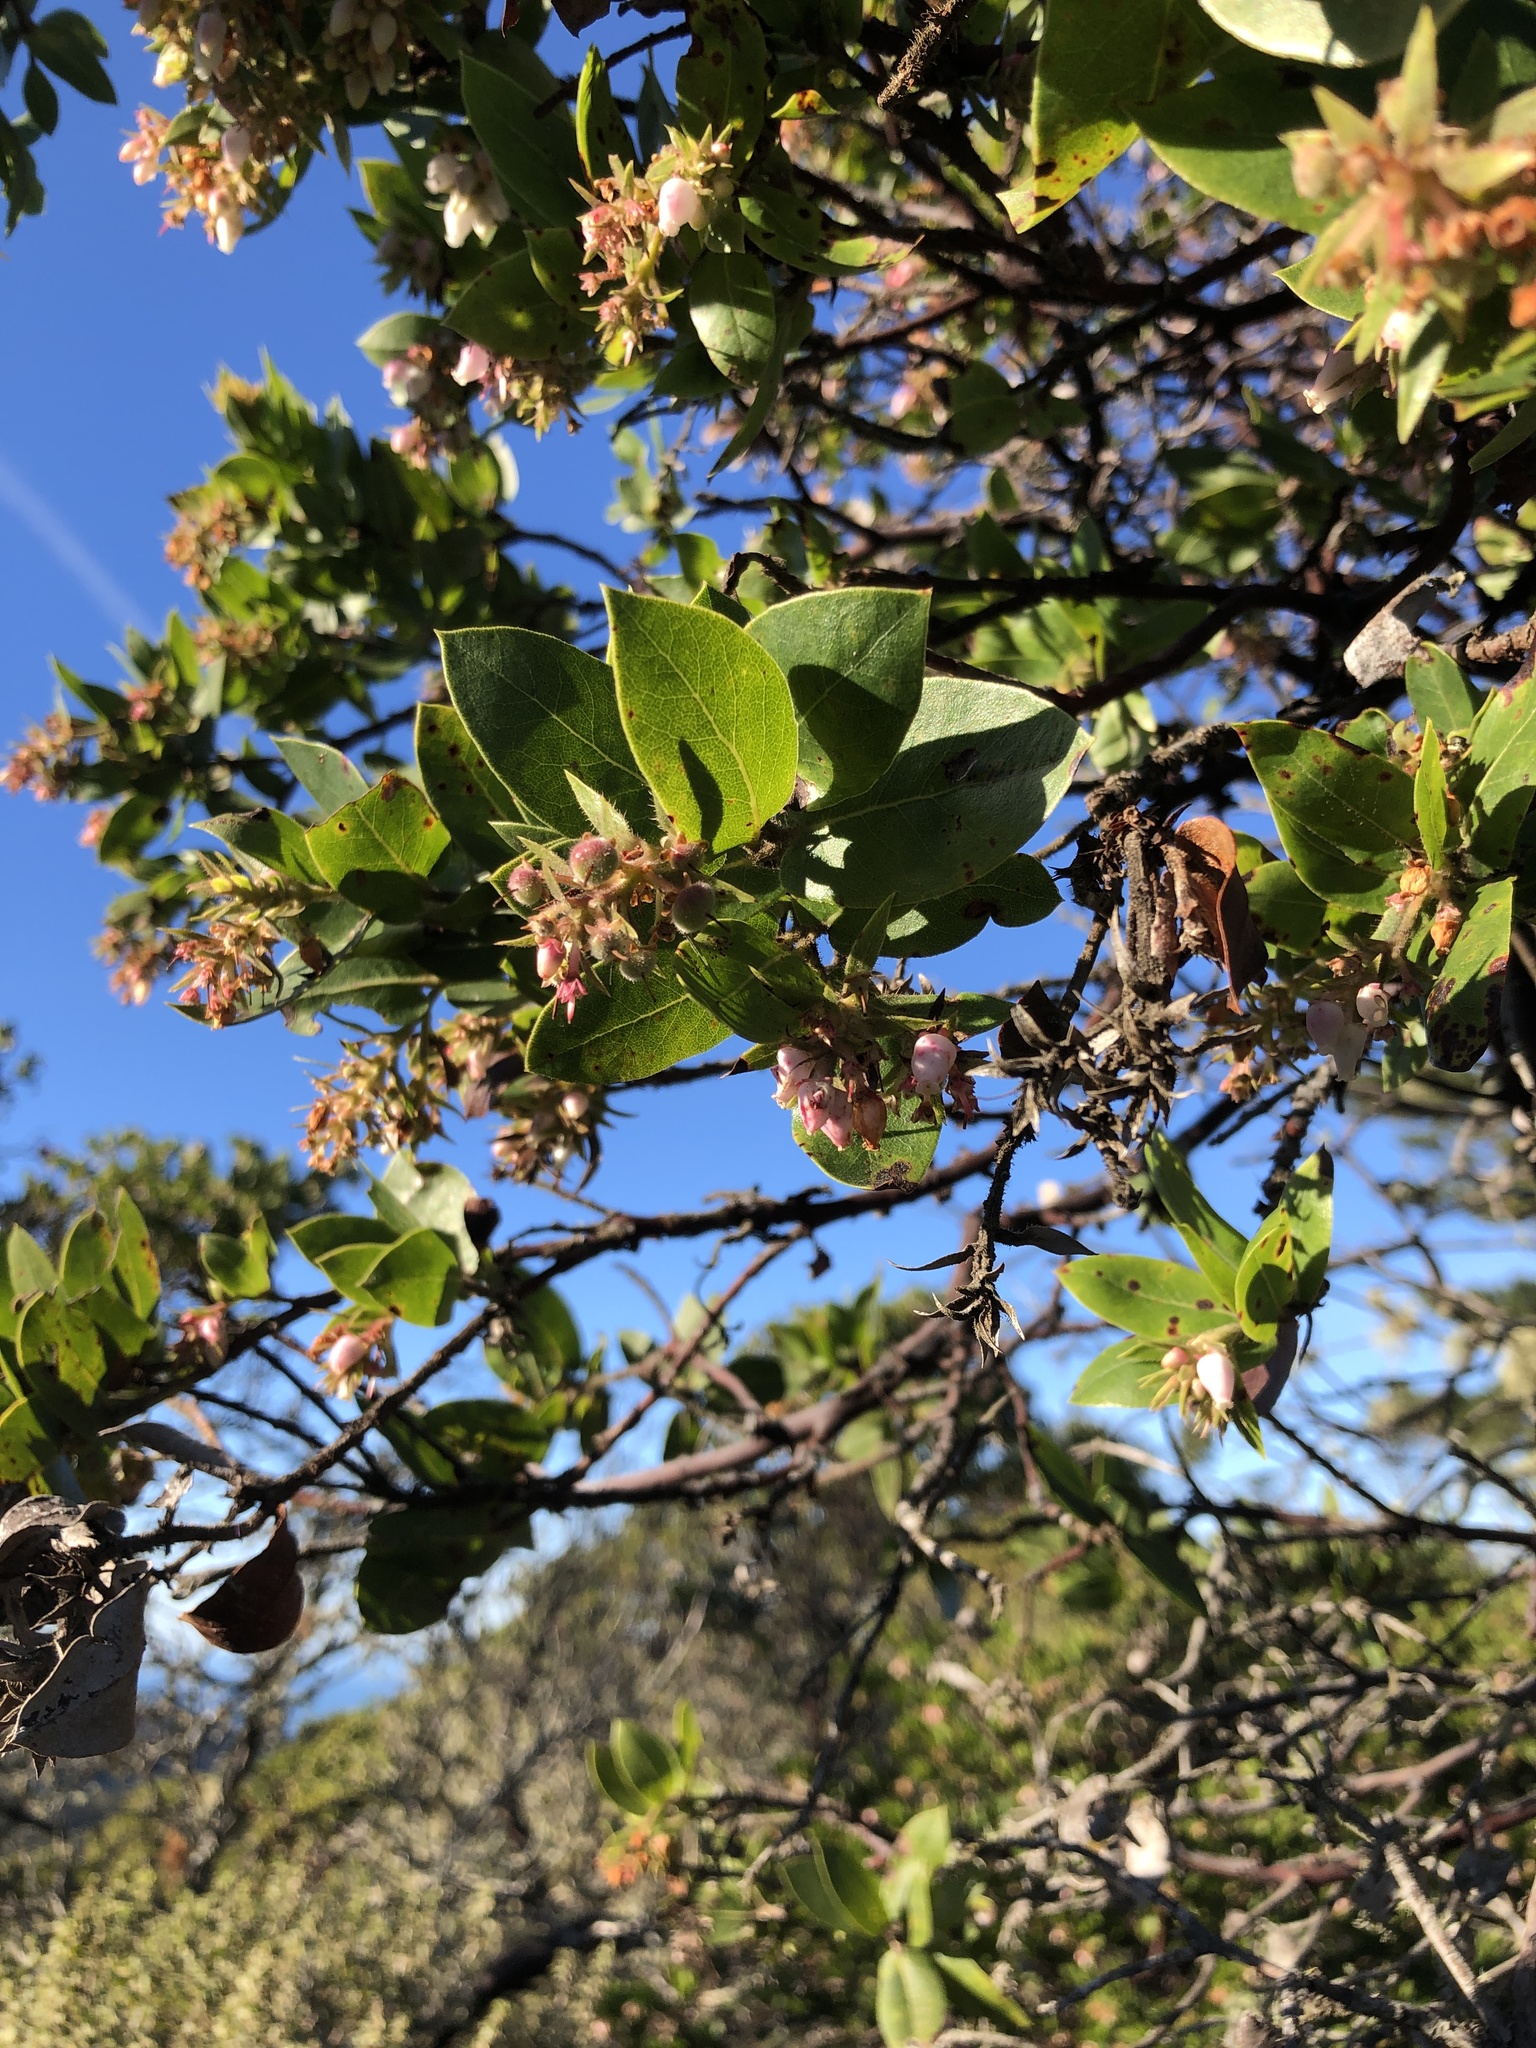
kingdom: Plantae
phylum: Tracheophyta
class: Magnoliopsida
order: Ericales
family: Ericaceae
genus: Arctostaphylos
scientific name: Arctostaphylos montaraensis
